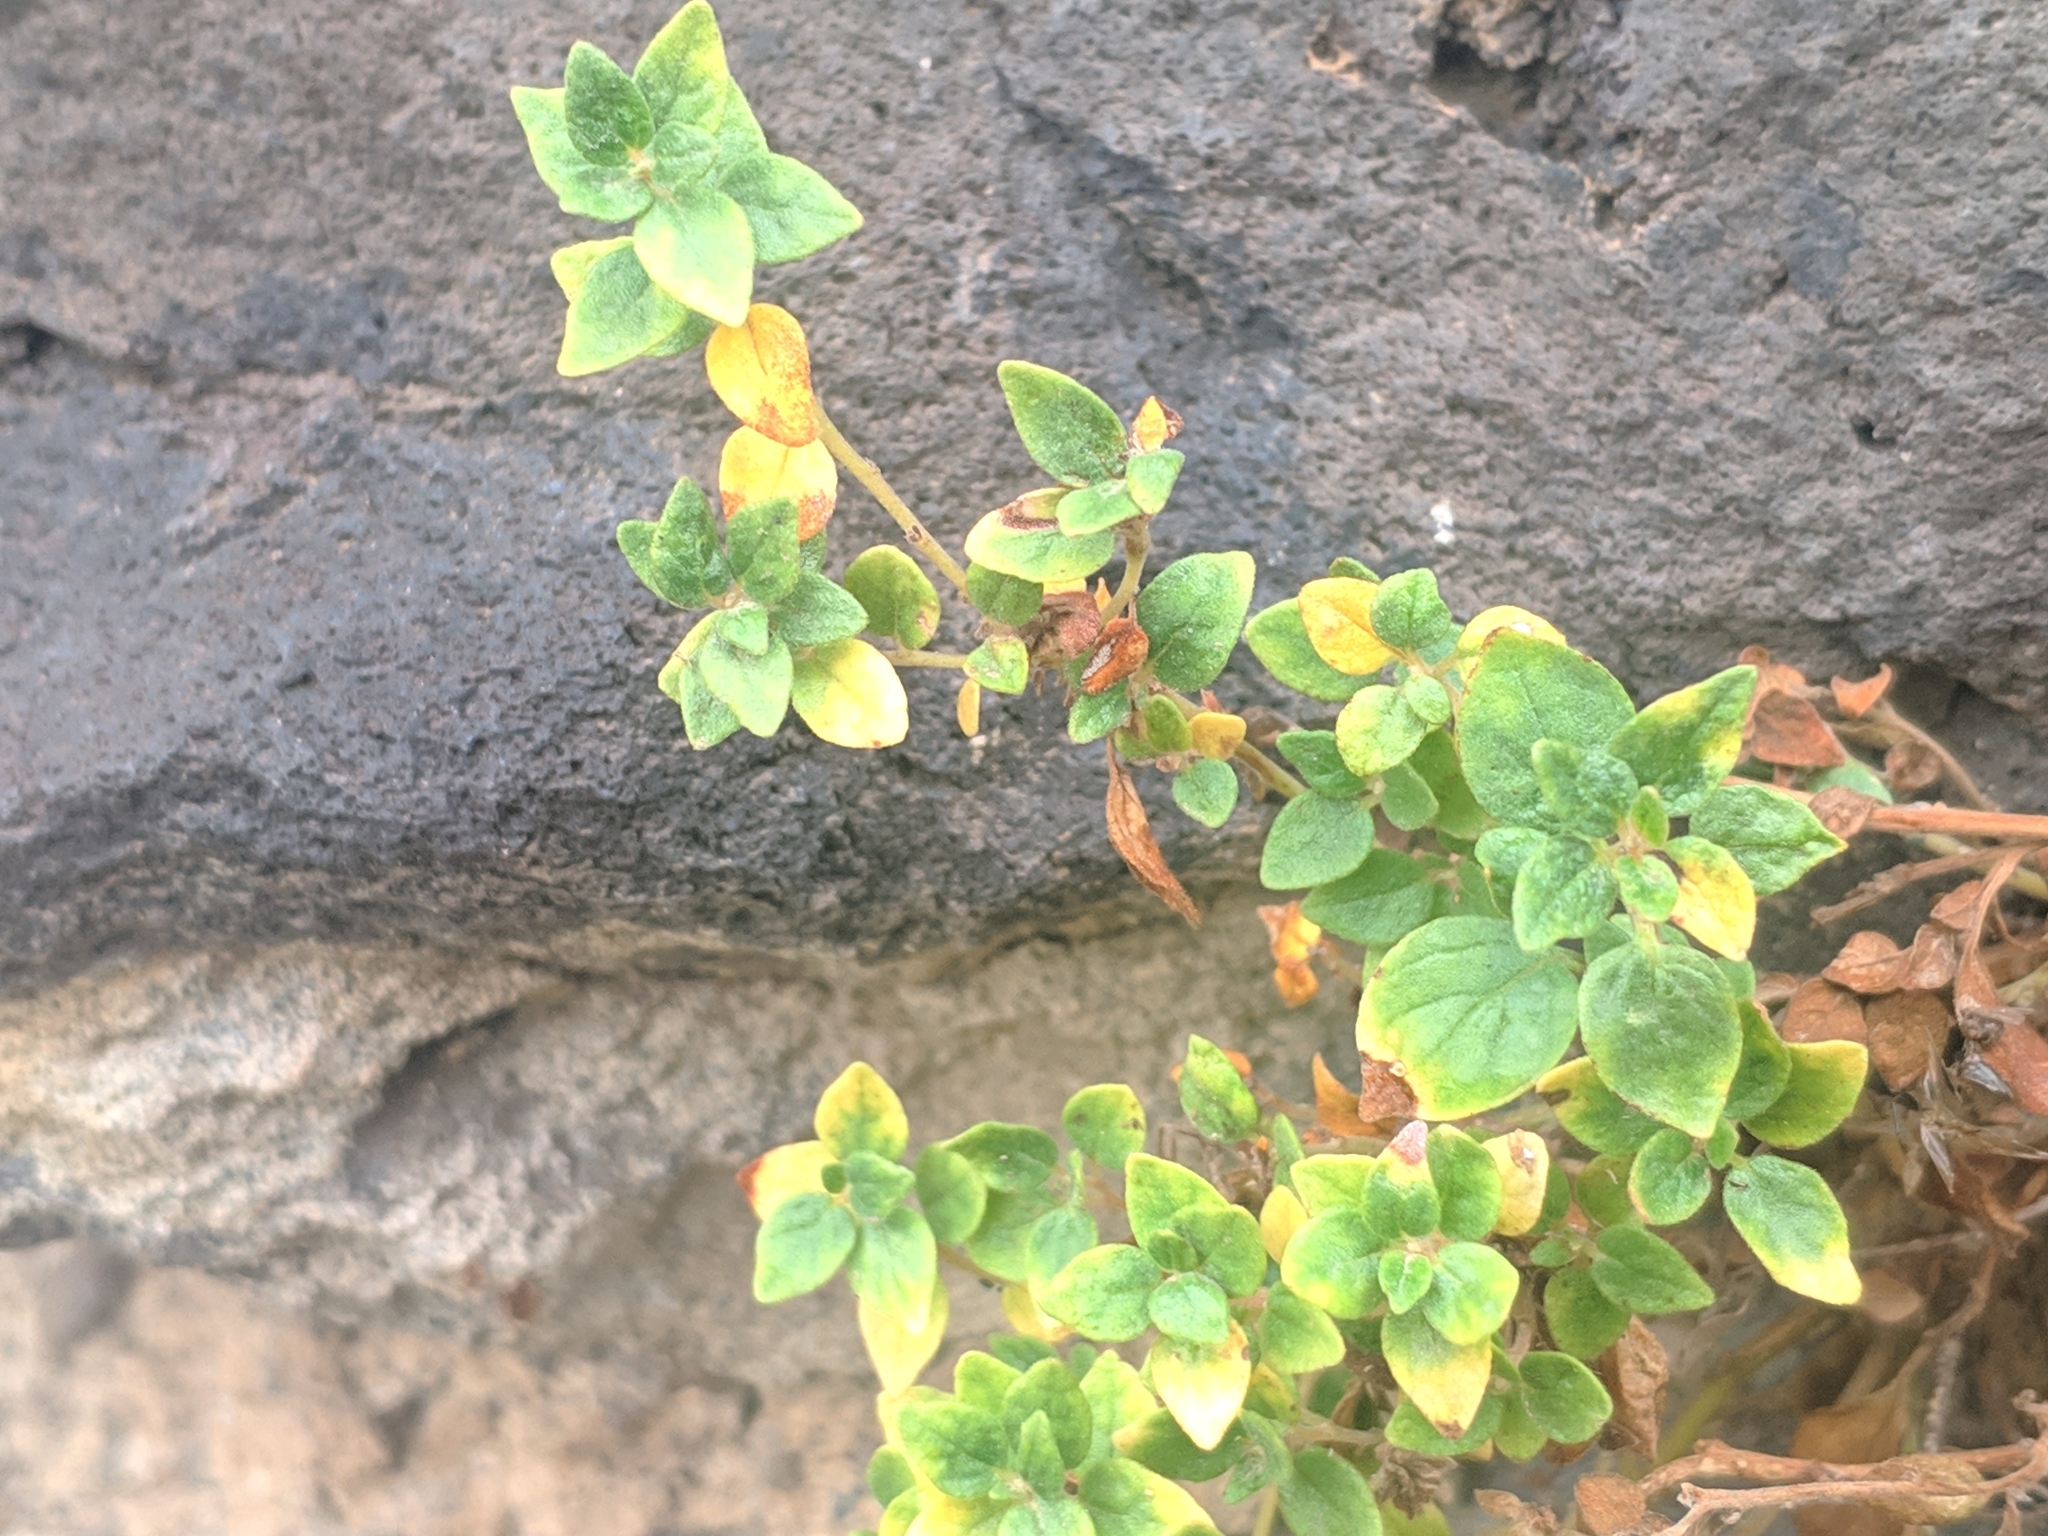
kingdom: Plantae
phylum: Tracheophyta
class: Magnoliopsida
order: Rosales
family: Urticaceae
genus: Parietaria
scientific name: Parietaria judaica
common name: Pellitory-of-the-wall
